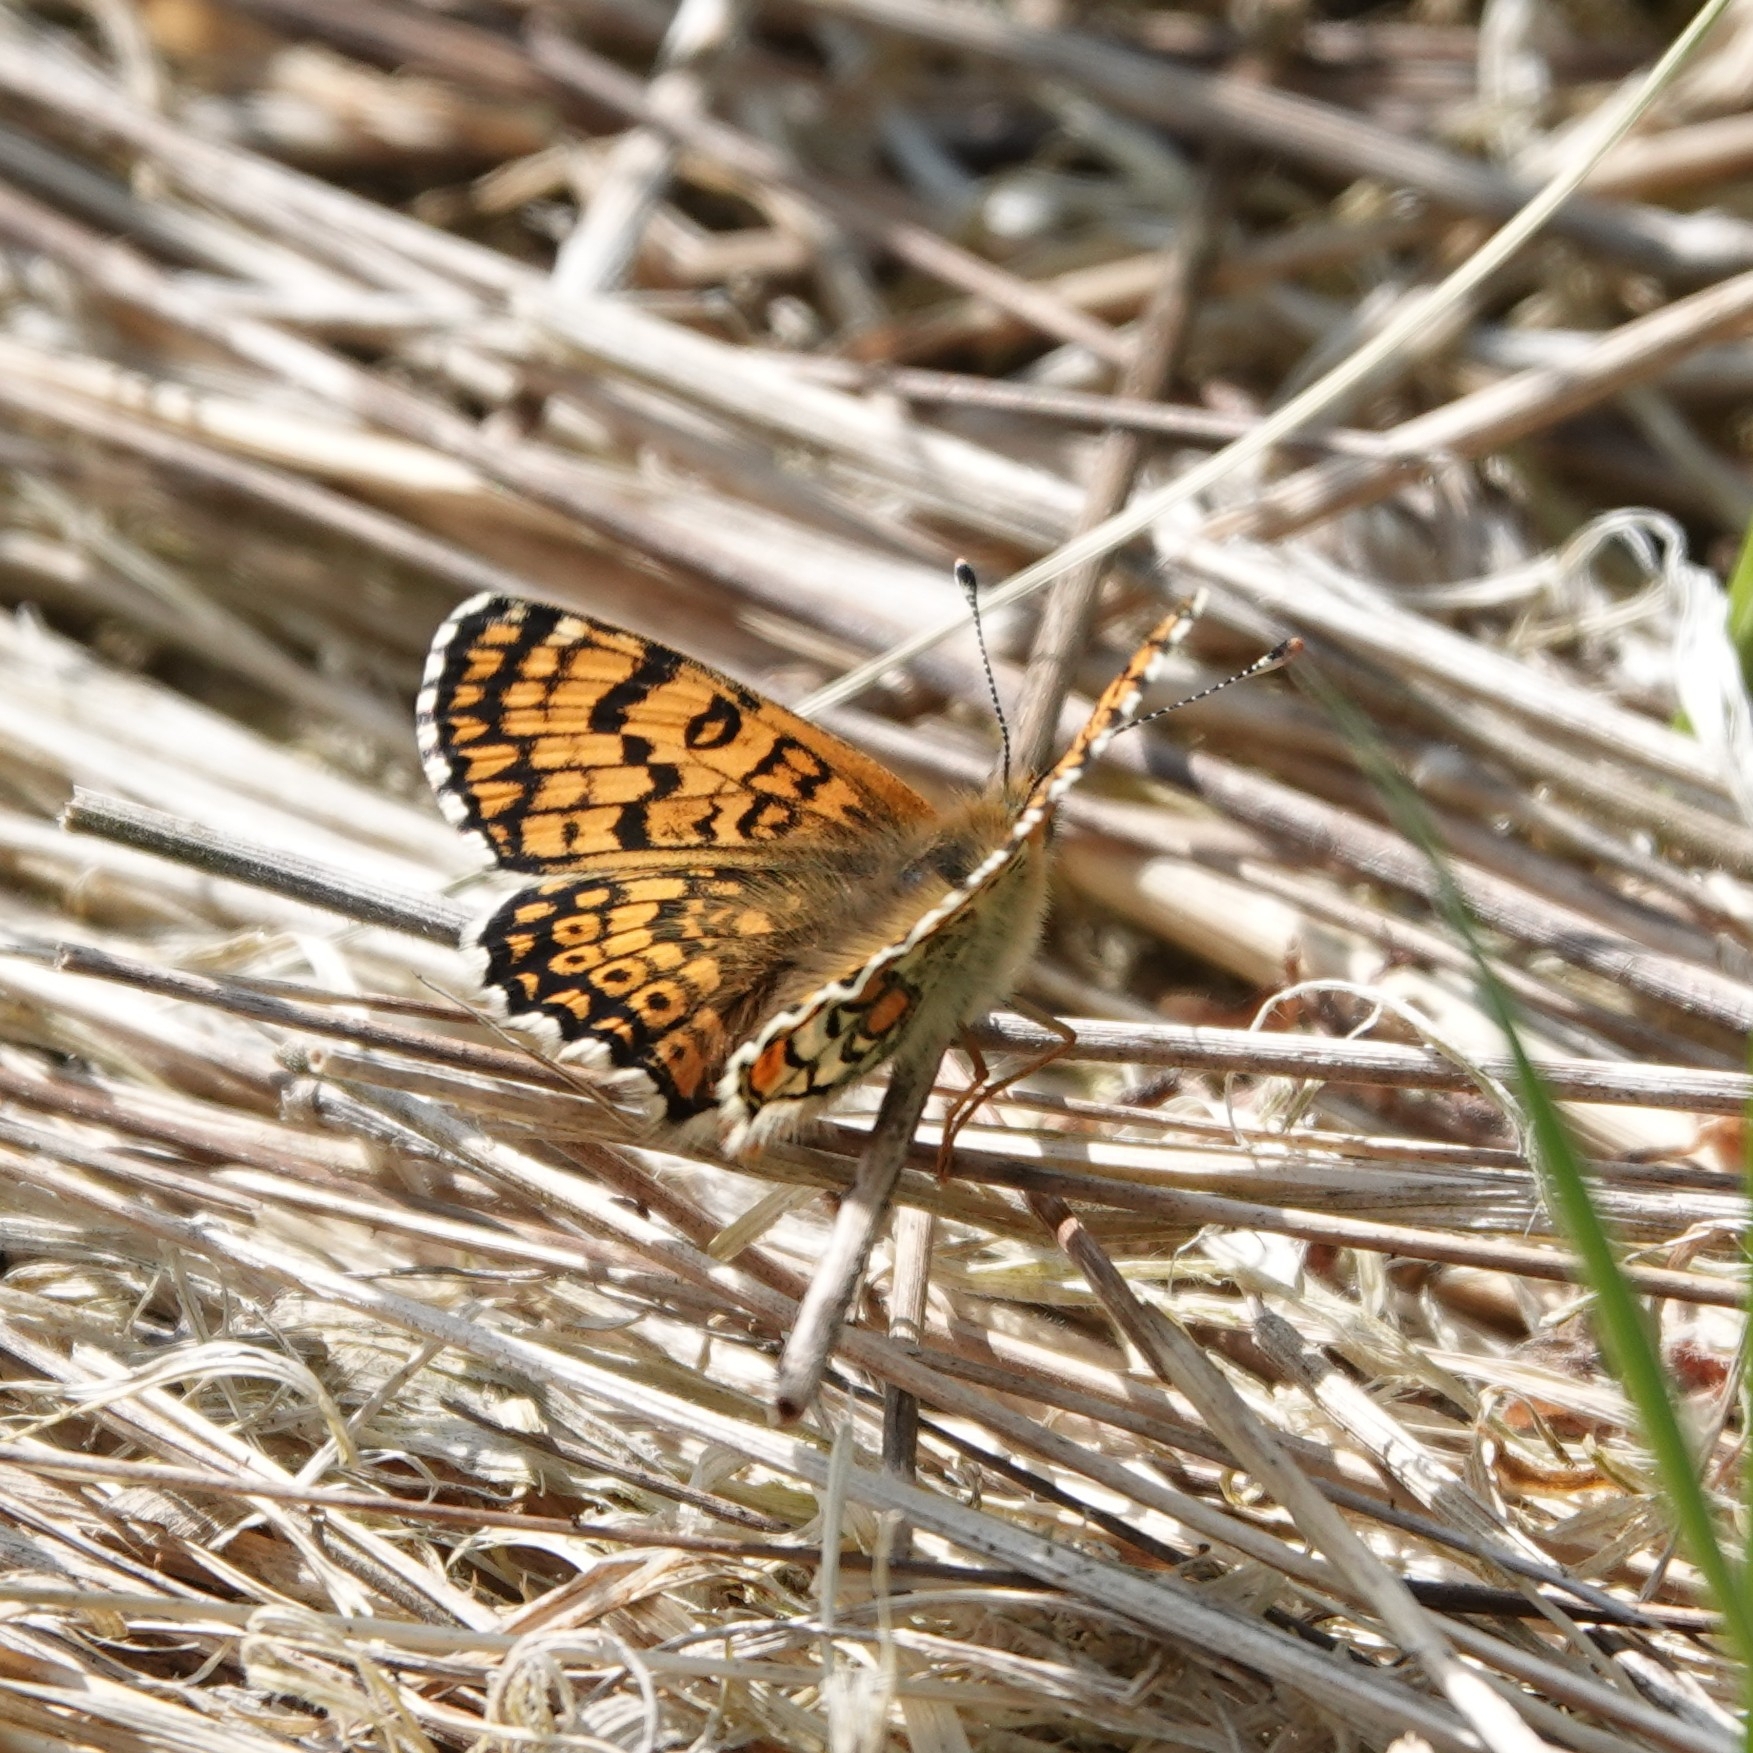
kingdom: Animalia
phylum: Arthropoda
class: Insecta
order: Lepidoptera
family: Nymphalidae
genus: Melitaea
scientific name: Melitaea cinxia
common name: Glanville fritillary
